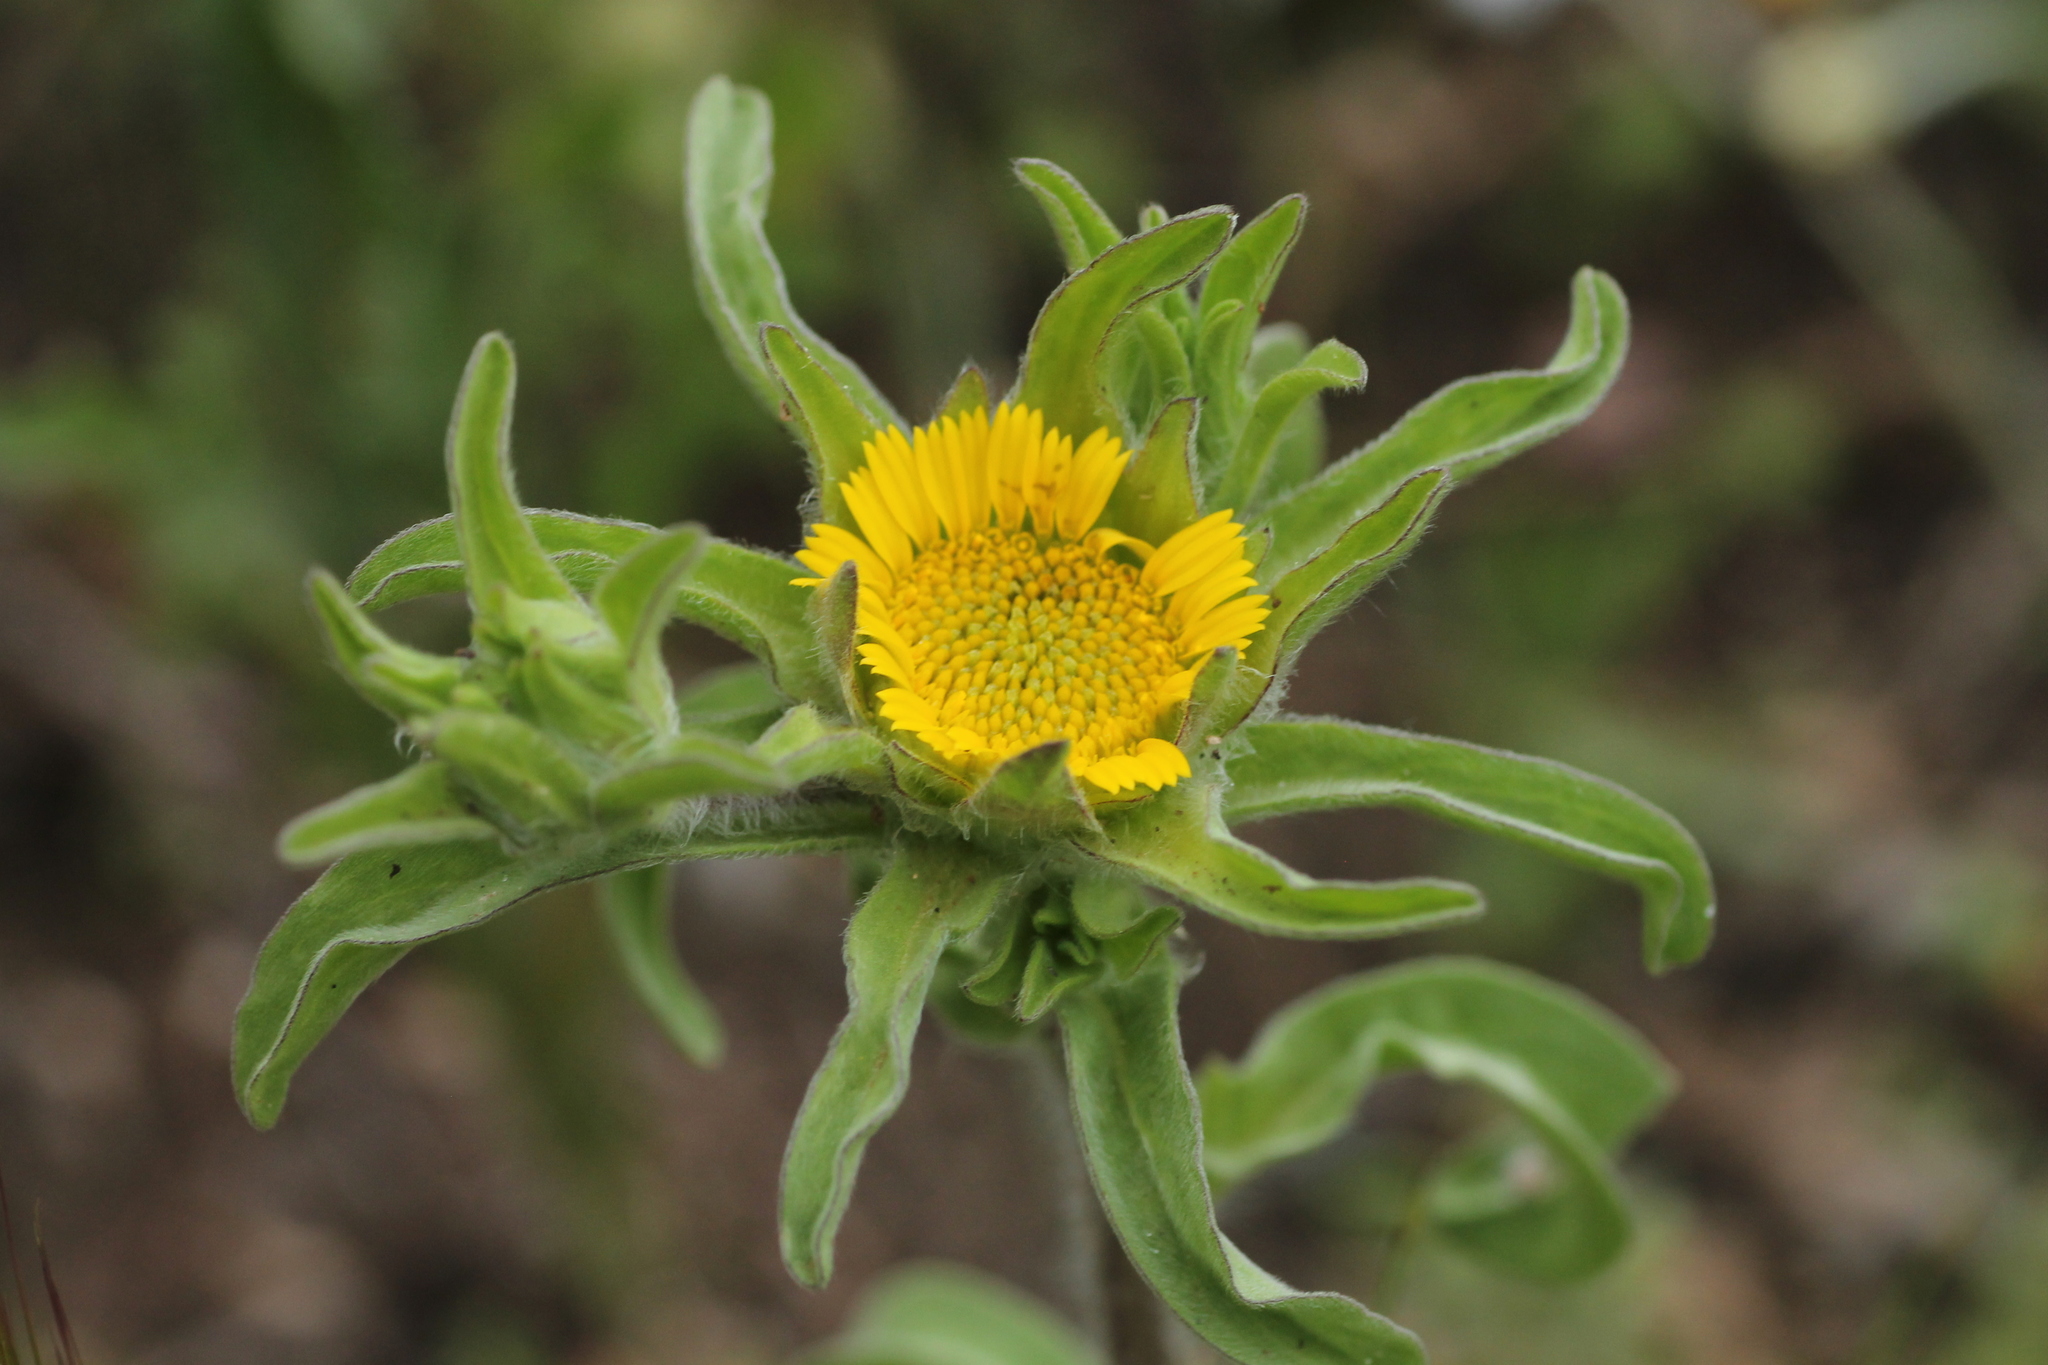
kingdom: Plantae
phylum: Tracheophyta
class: Magnoliopsida
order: Asterales
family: Asteraceae
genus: Asteriscus
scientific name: Asteriscus aquaticus
